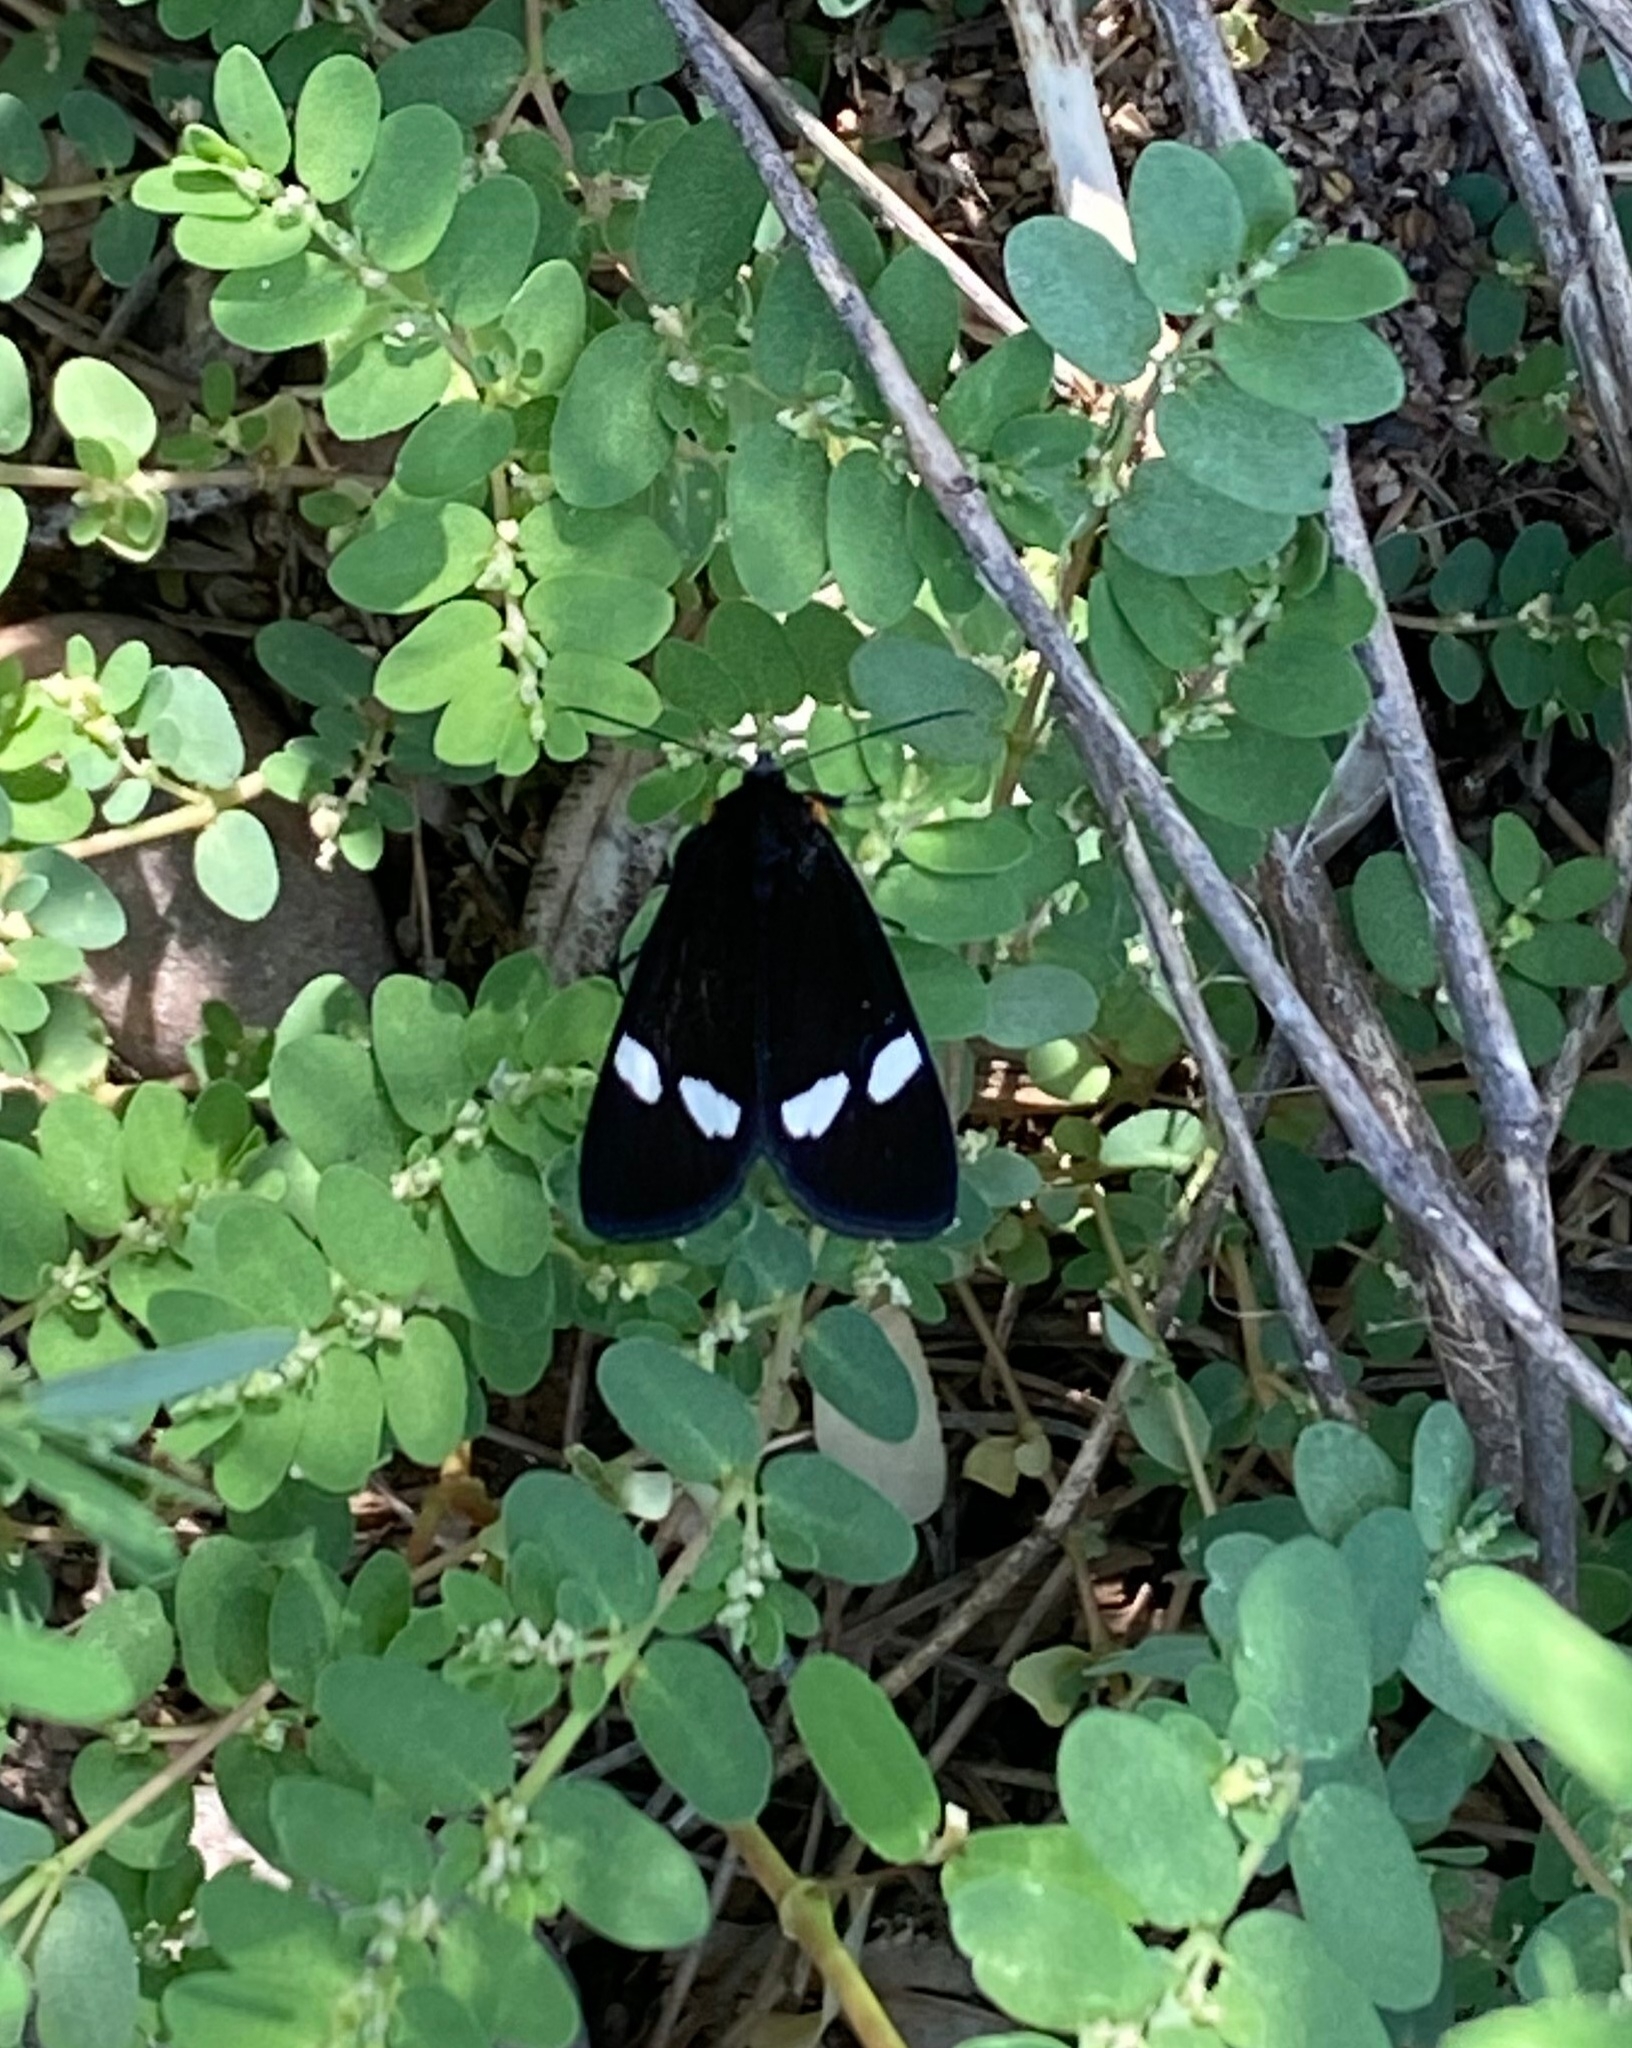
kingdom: Animalia
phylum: Arthropoda
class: Insecta
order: Lepidoptera
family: Noctuidae
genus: Alypiodes
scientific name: Alypiodes geronimo
